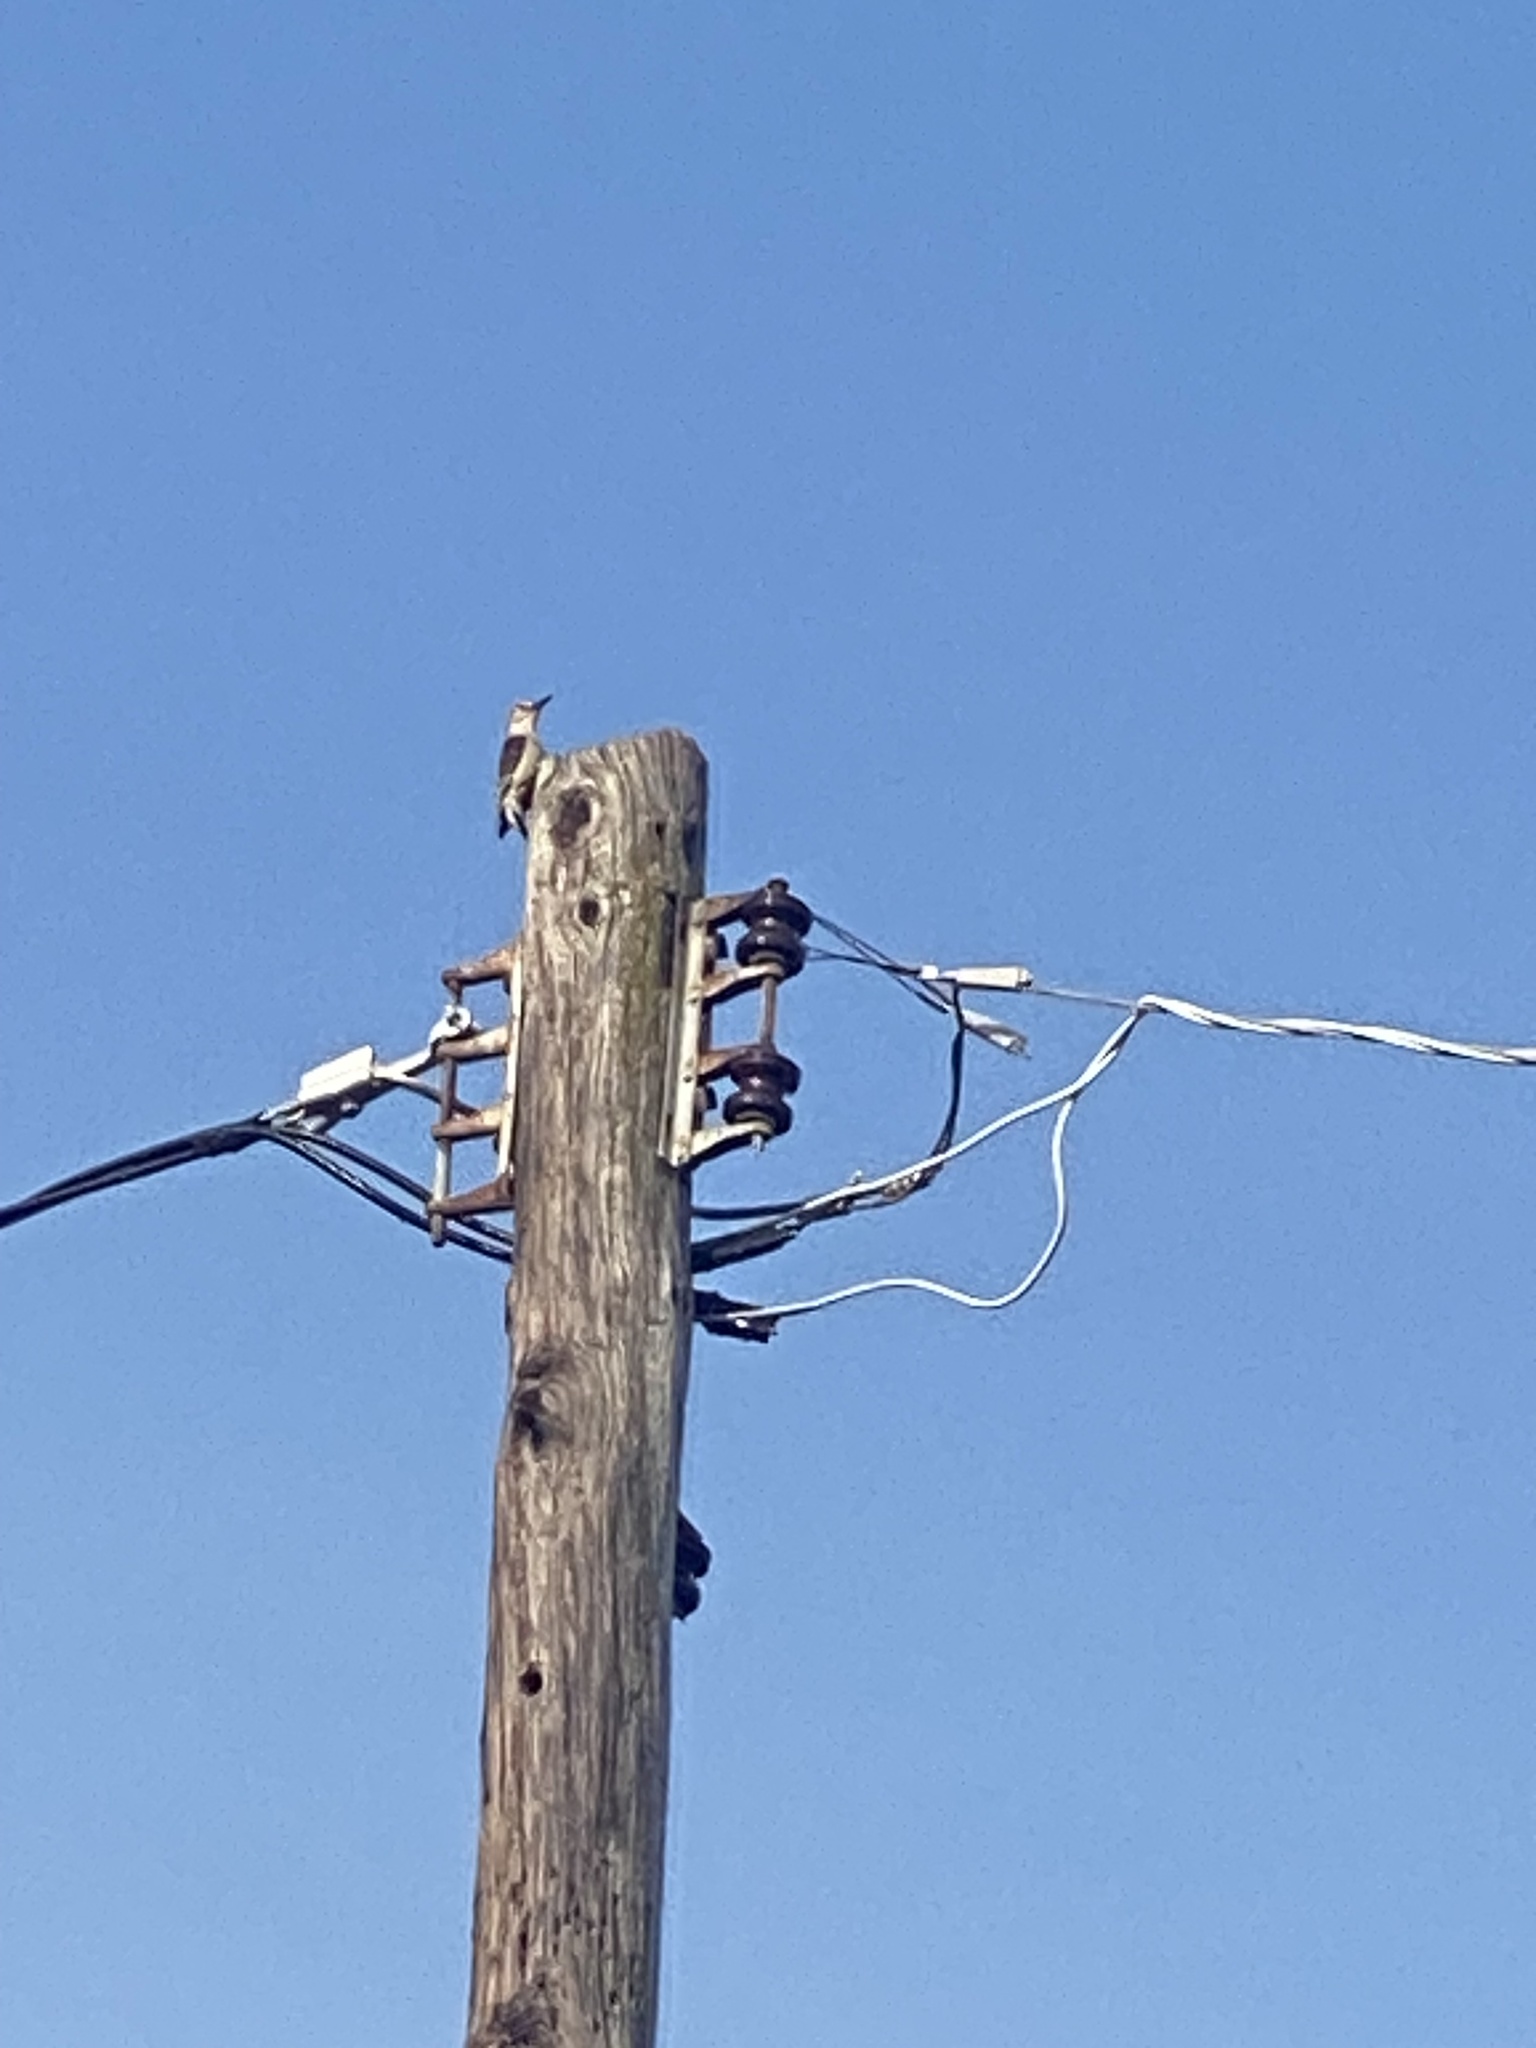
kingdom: Animalia
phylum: Chordata
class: Aves
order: Piciformes
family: Picidae
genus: Melanerpes
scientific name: Melanerpes carolinus
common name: Red-bellied woodpecker
